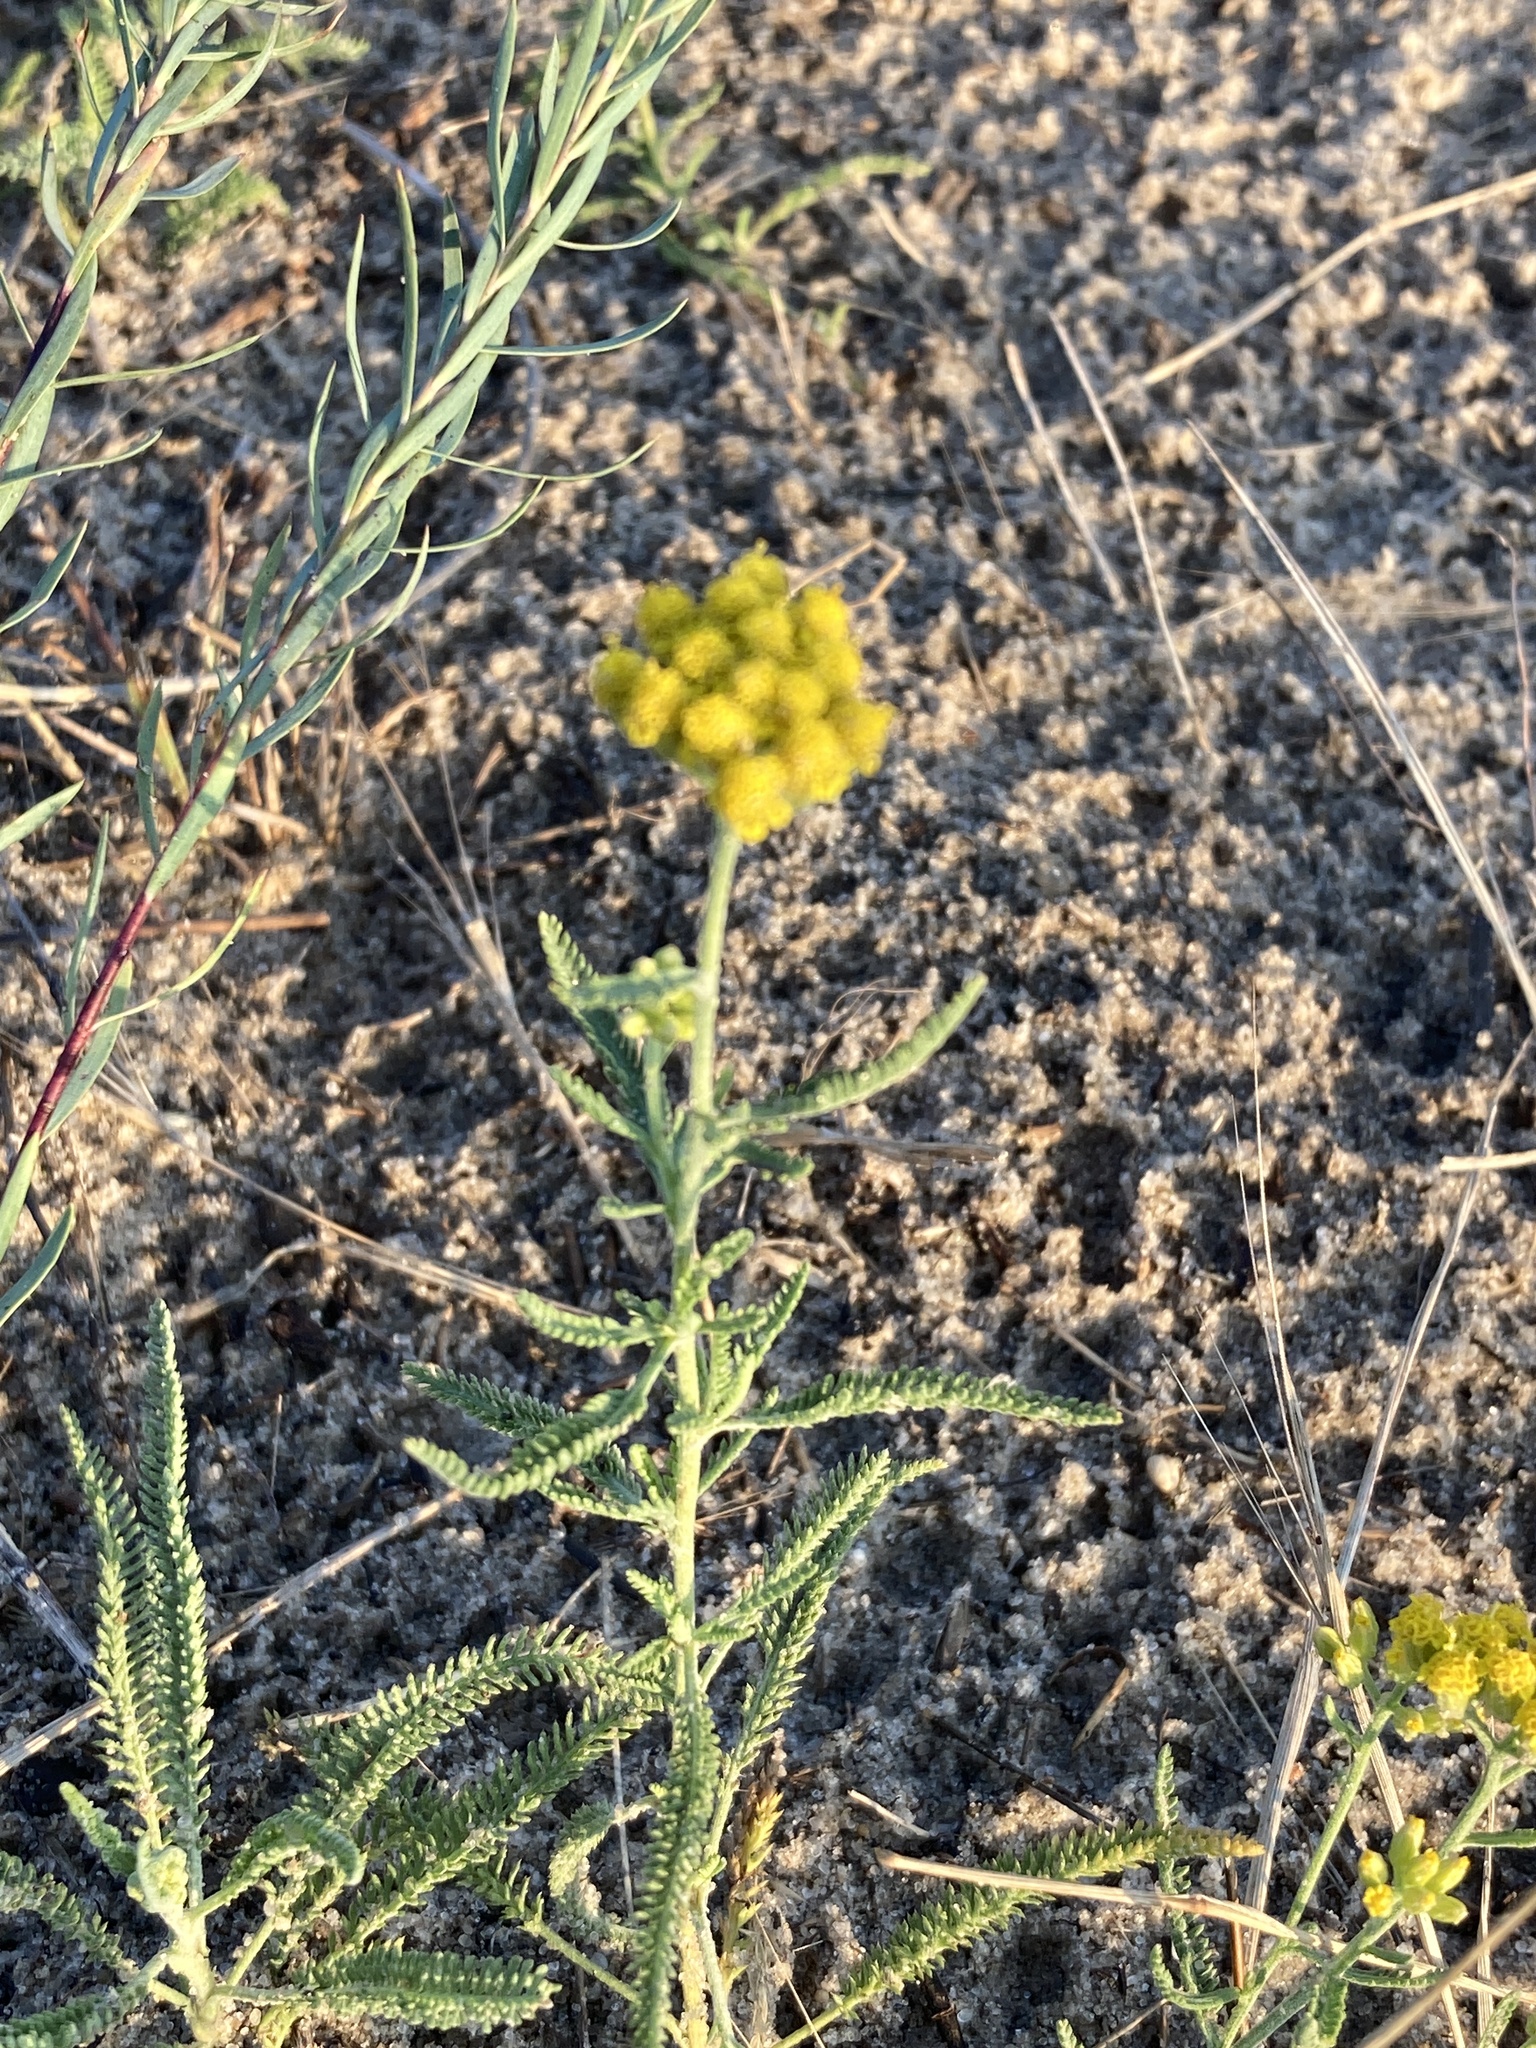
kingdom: Plantae
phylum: Tracheophyta
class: Magnoliopsida
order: Asterales
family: Asteraceae
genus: Achillea
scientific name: Achillea micrantha
